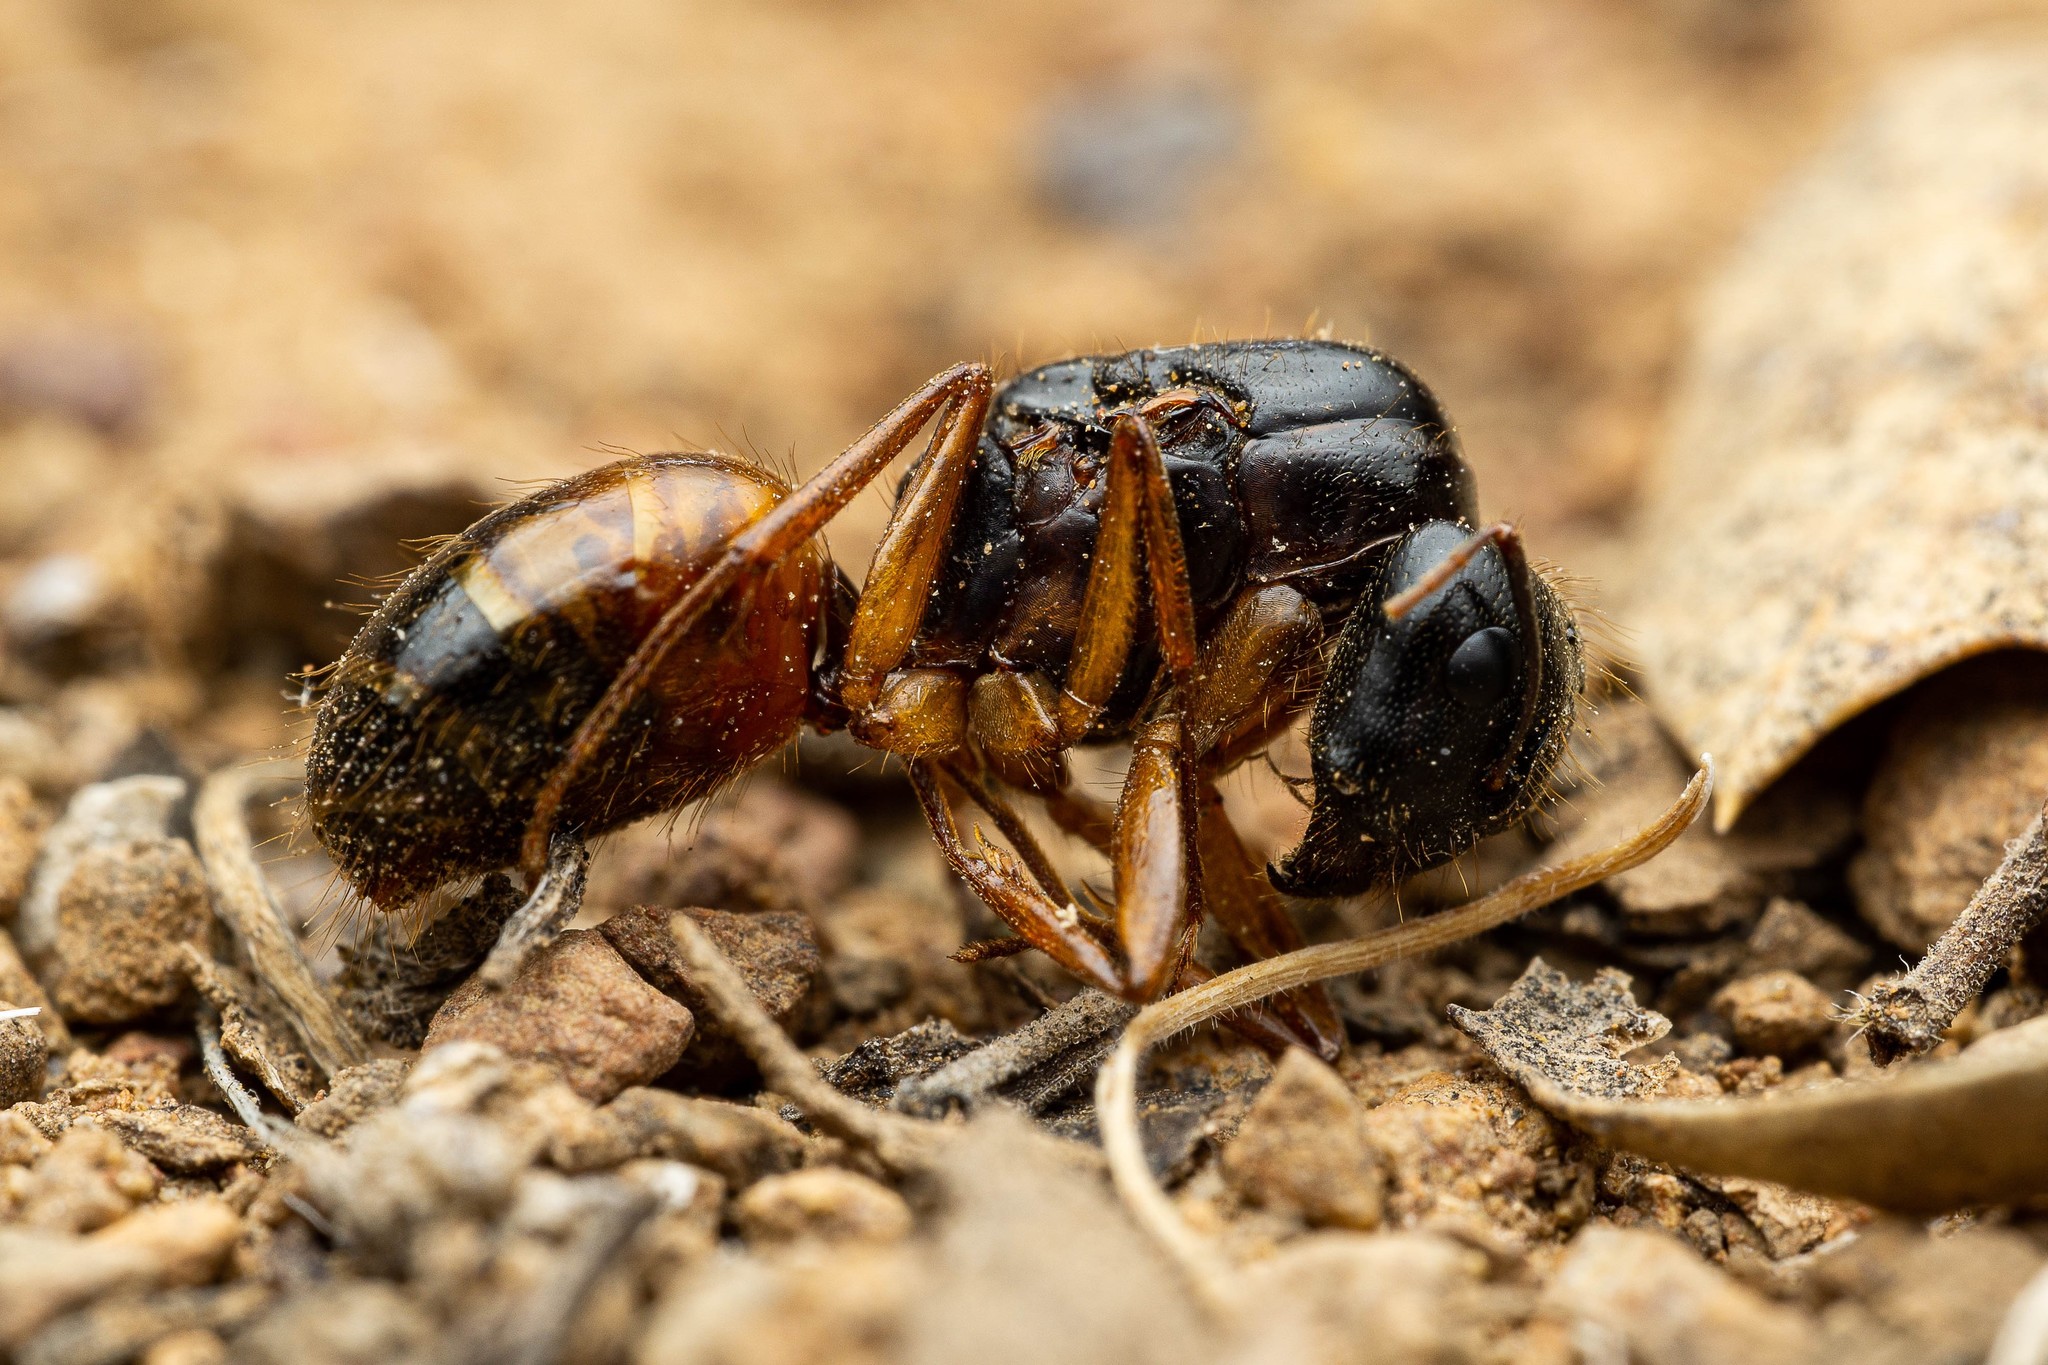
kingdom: Animalia
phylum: Arthropoda
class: Insecta
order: Hymenoptera
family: Formicidae
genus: Camponotus
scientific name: Camponotus sansabeanus
